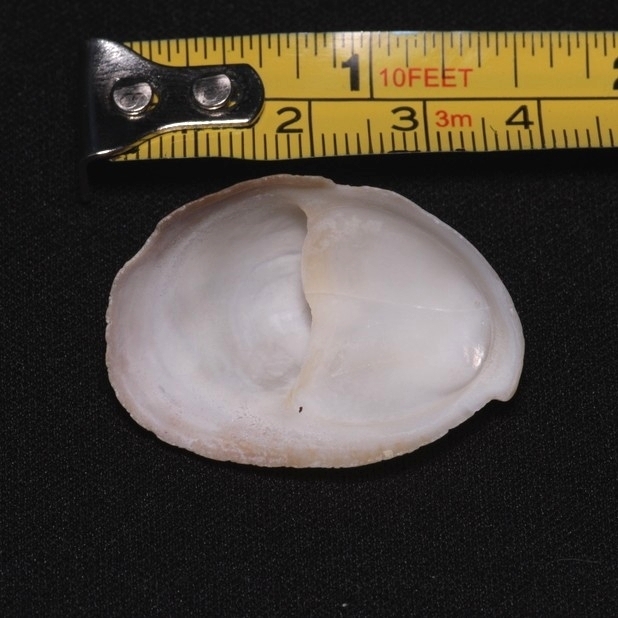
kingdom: Animalia
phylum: Mollusca
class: Gastropoda
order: Littorinimorpha
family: Calyptraeidae
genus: Crepidula
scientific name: Crepidula fornicata
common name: Slipper limpet
